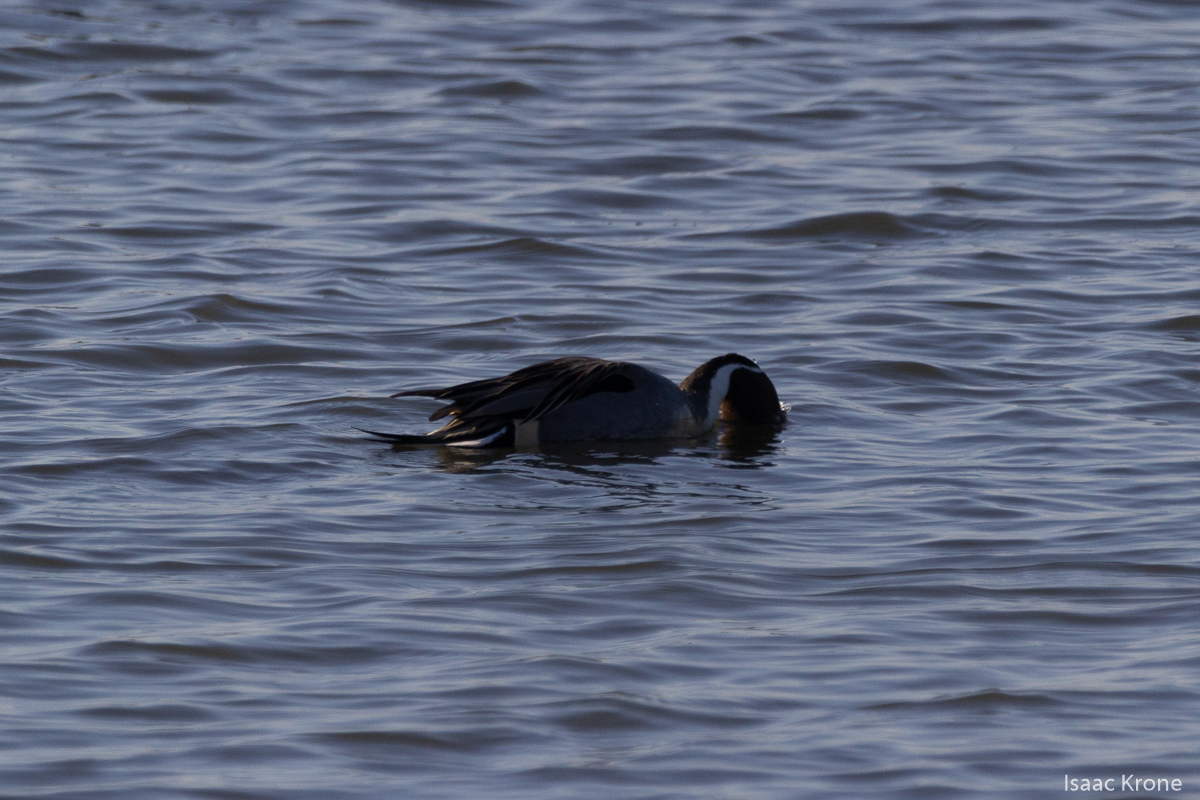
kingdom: Animalia
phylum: Chordata
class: Aves
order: Anseriformes
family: Anatidae
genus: Anas
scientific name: Anas acuta
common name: Northern pintail
